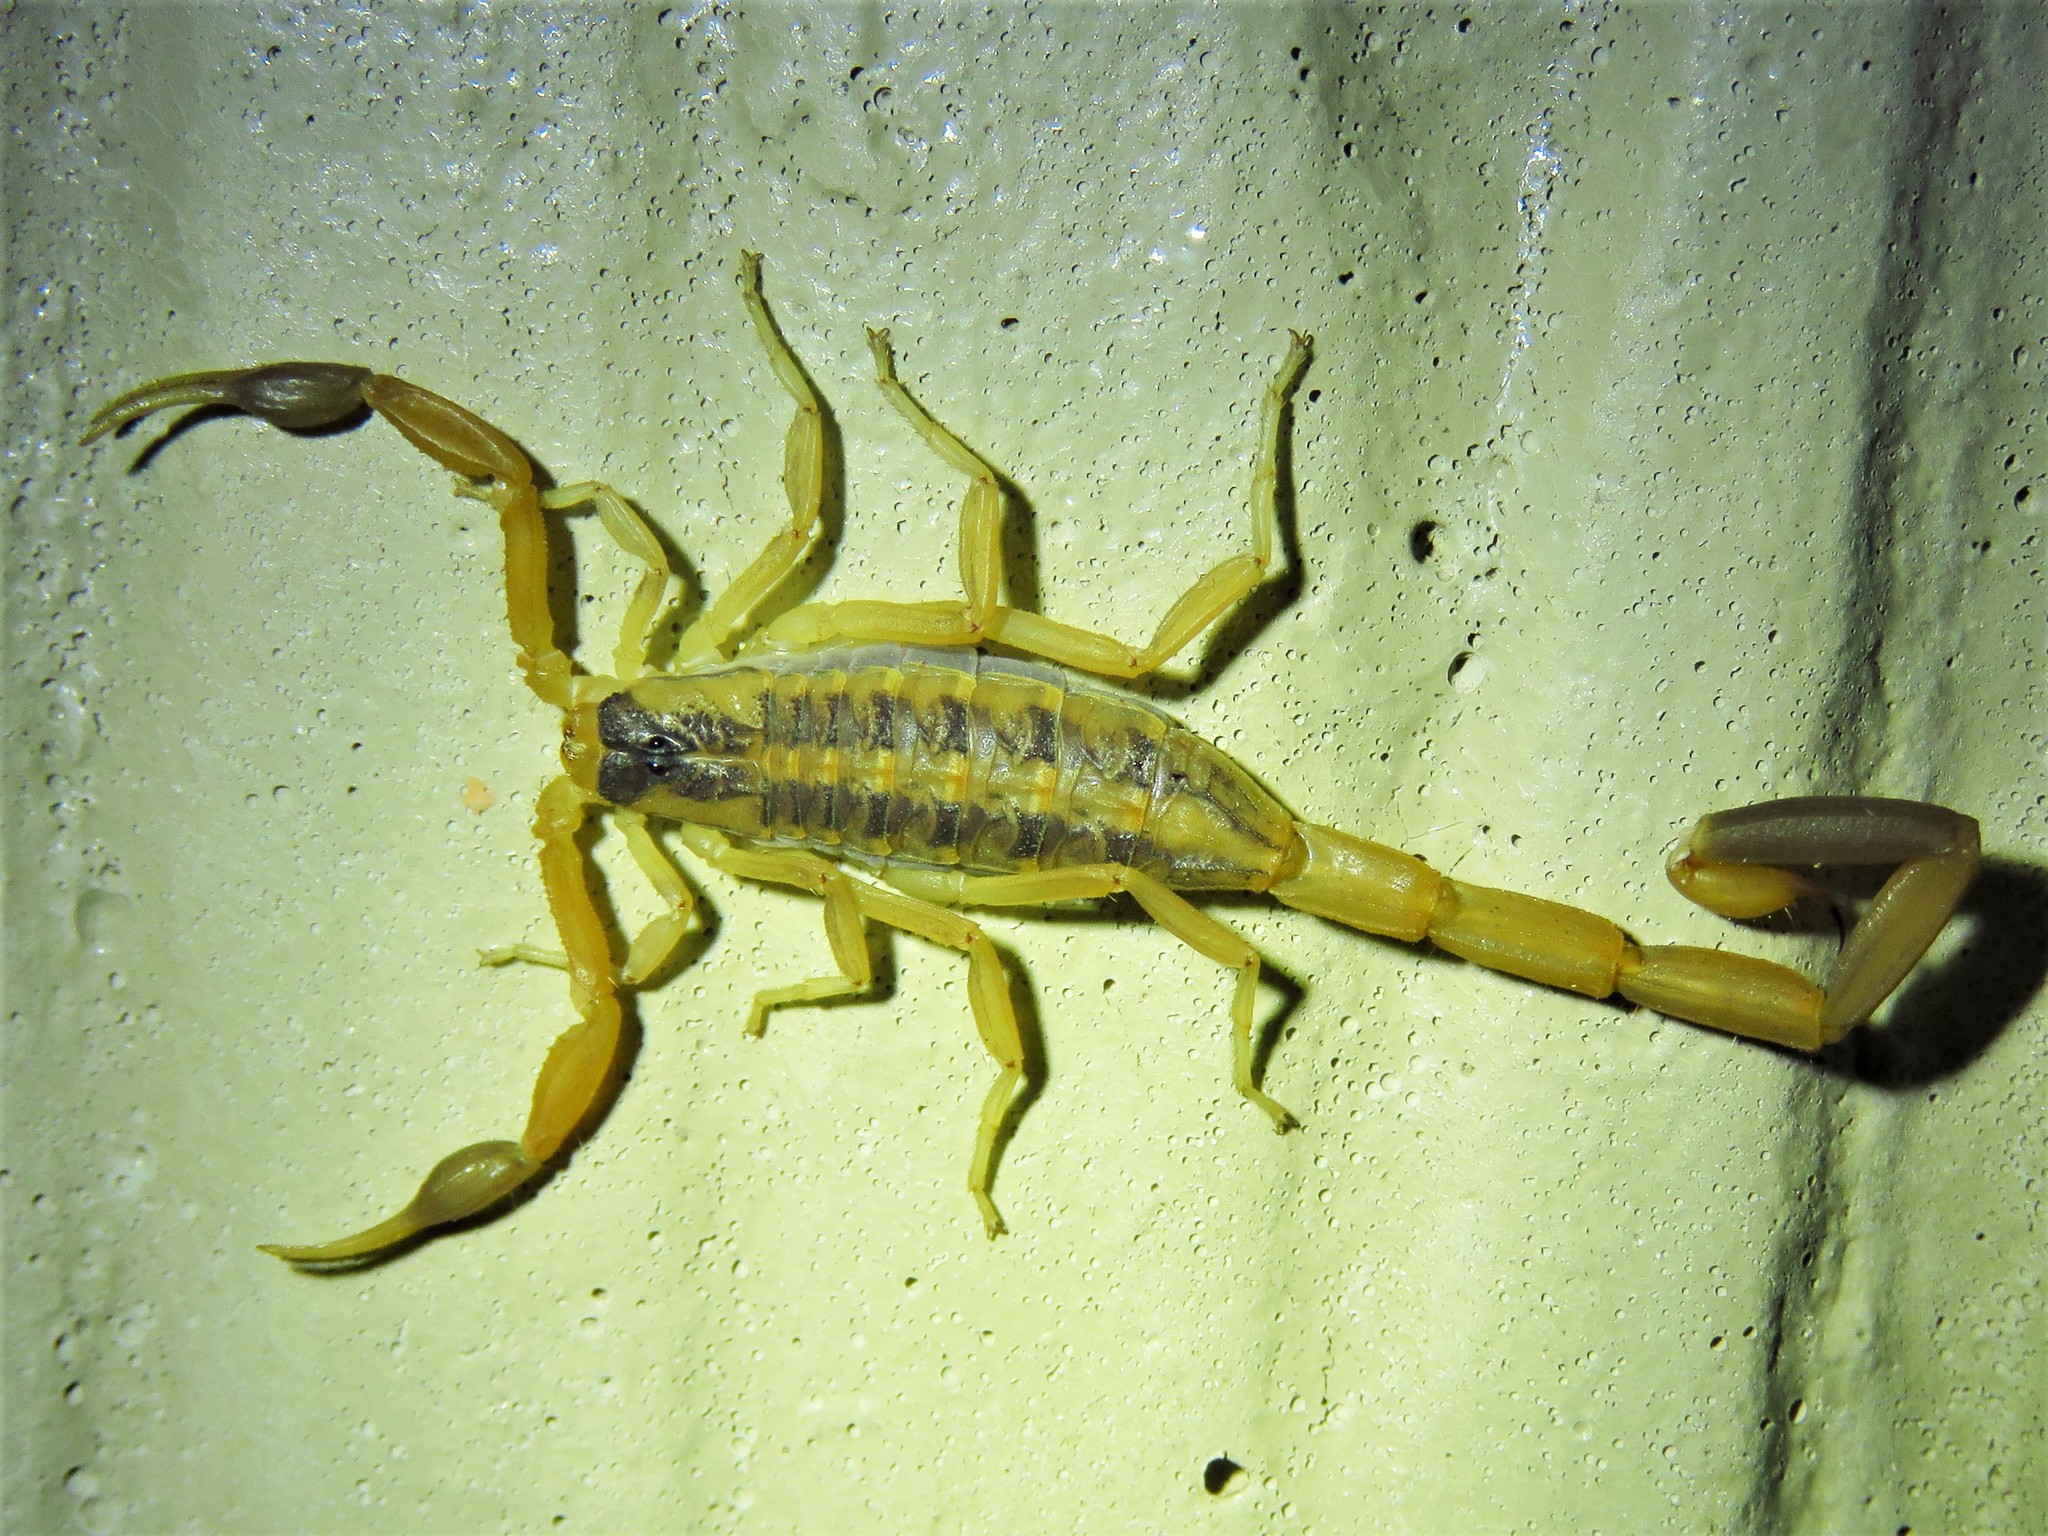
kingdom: Animalia
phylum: Arthropoda
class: Arachnida
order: Scorpiones
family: Buthidae
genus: Centruroides
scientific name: Centruroides vittatus
